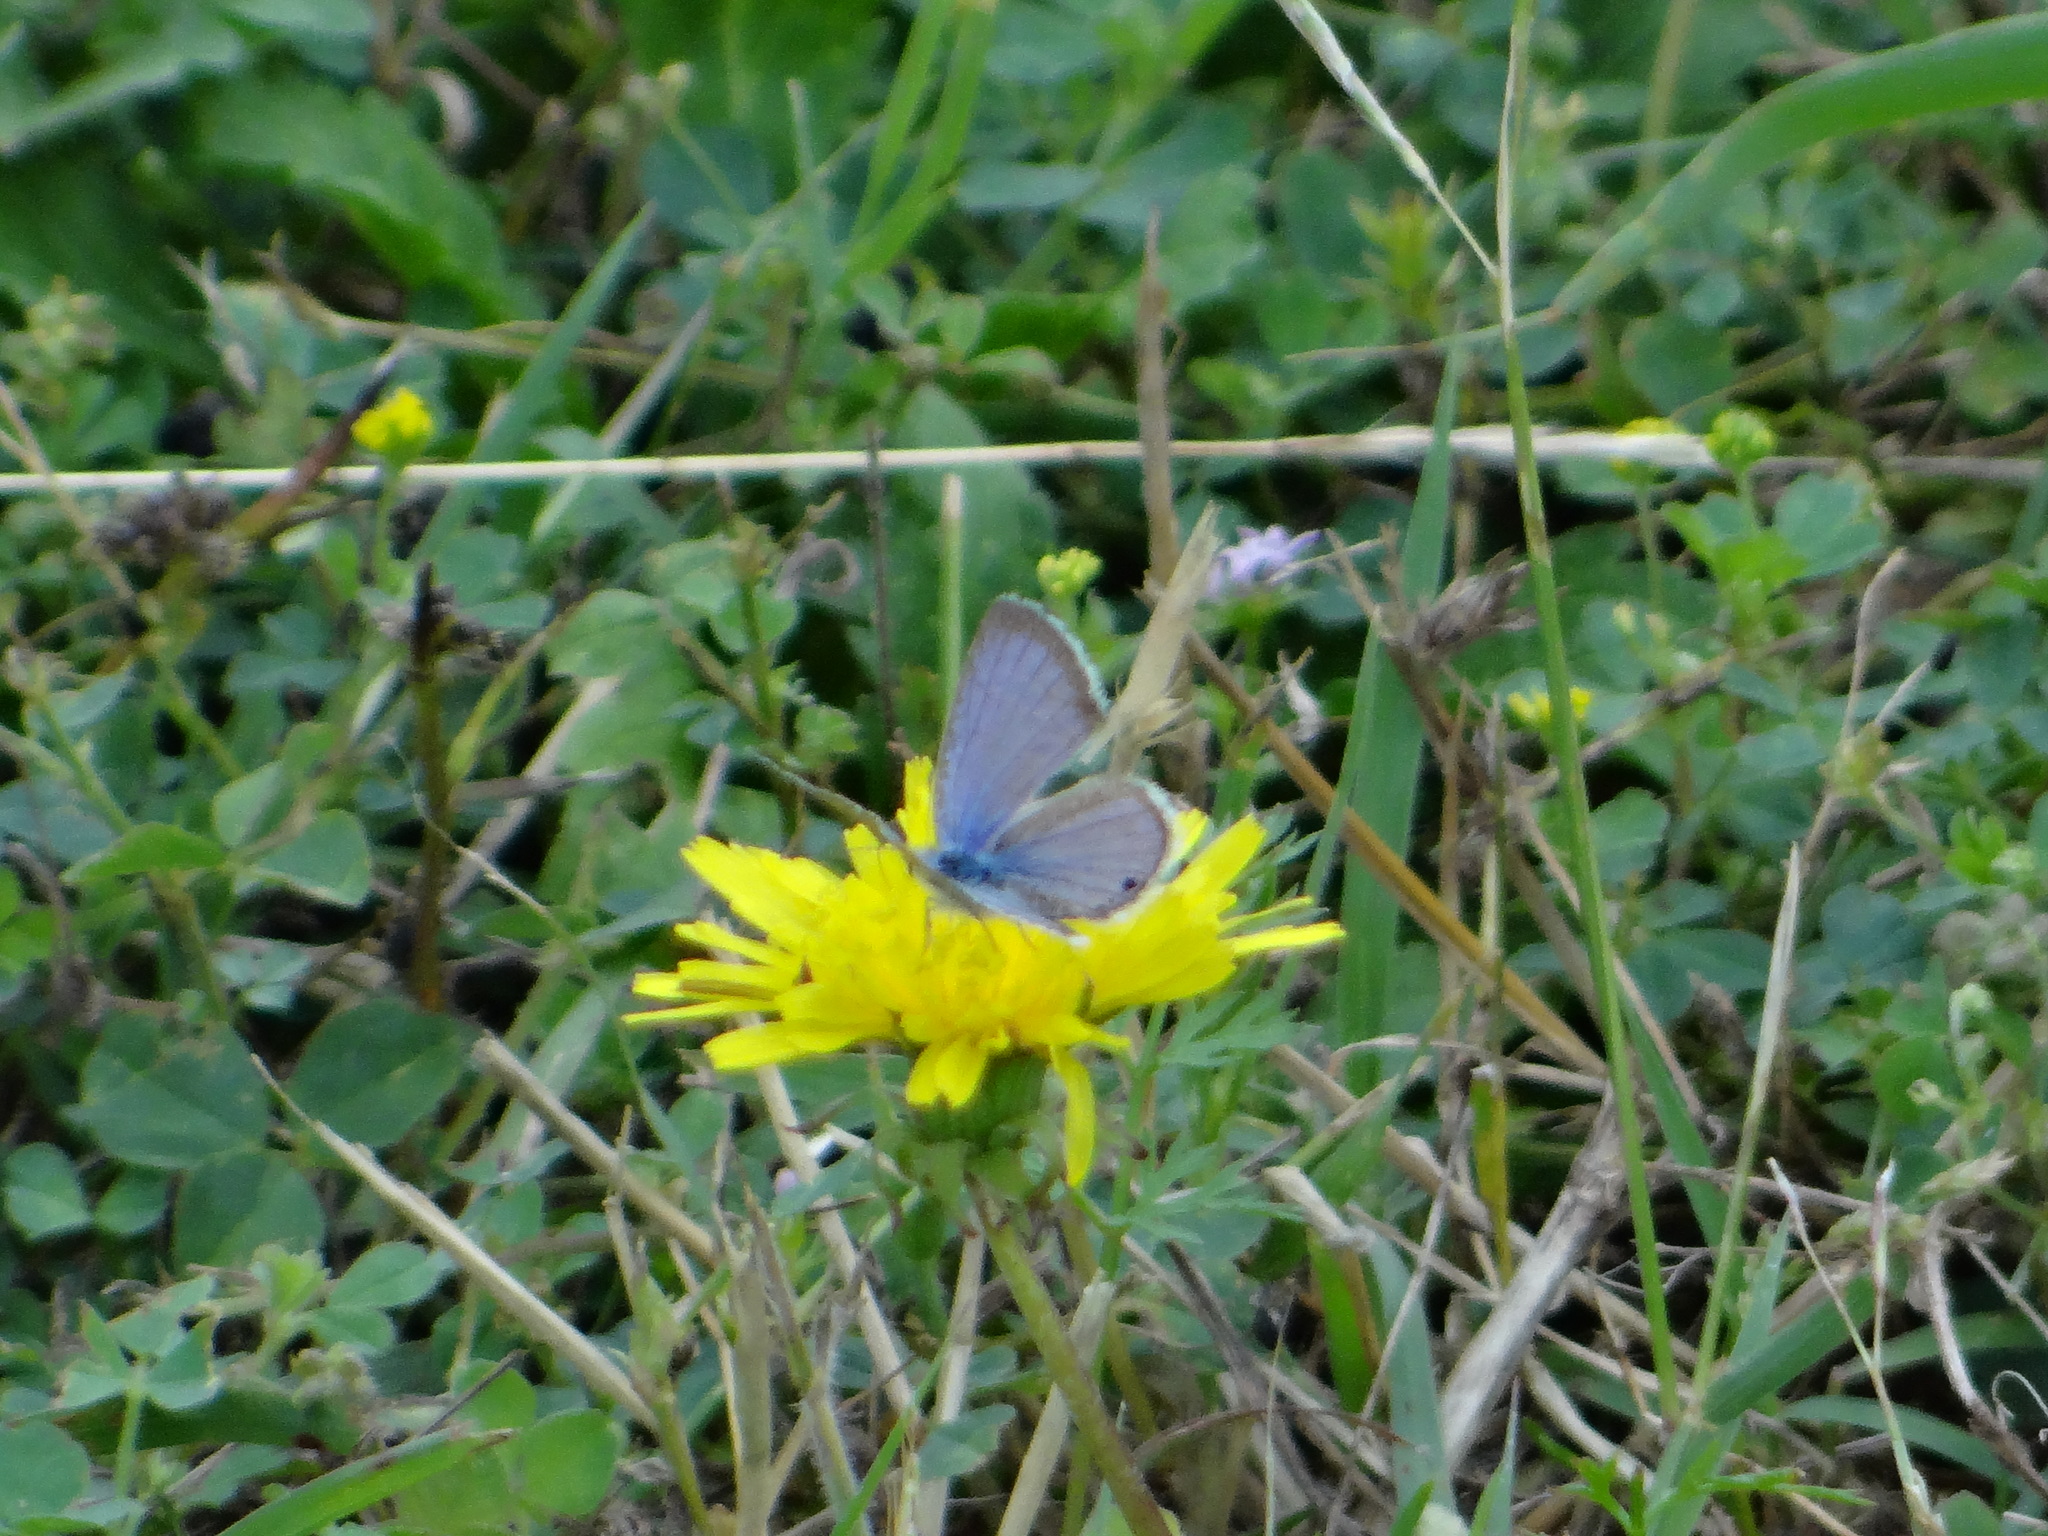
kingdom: Animalia
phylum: Arthropoda
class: Insecta
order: Lepidoptera
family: Lycaenidae
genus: Echinargus
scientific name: Echinargus isola
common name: Reakirt's blue
